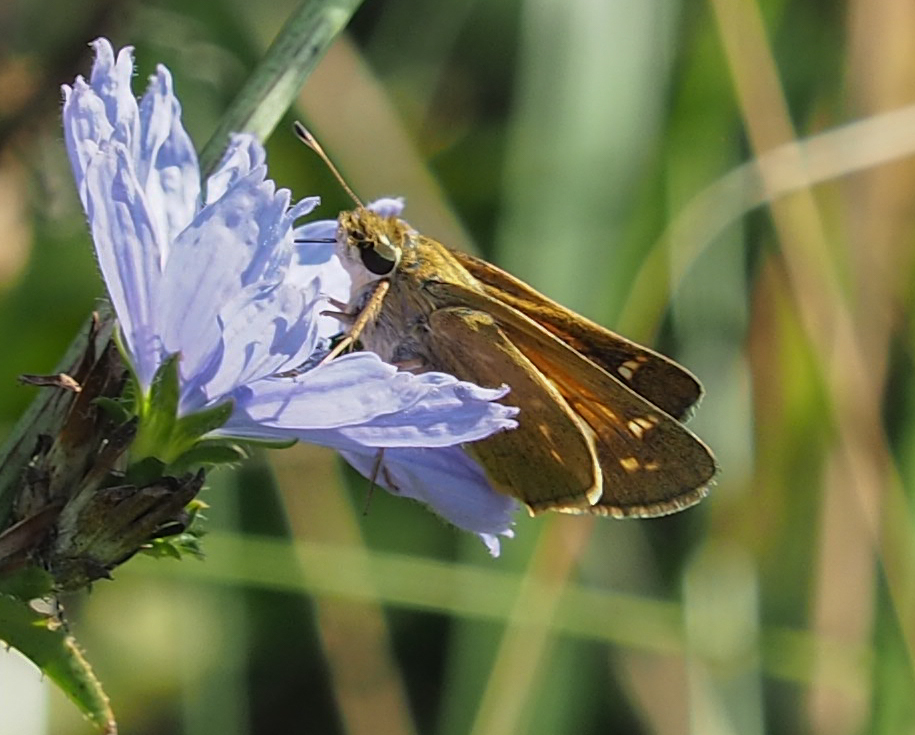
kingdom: Animalia
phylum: Arthropoda
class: Insecta
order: Lepidoptera
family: Hesperiidae
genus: Atalopedes
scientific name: Atalopedes
